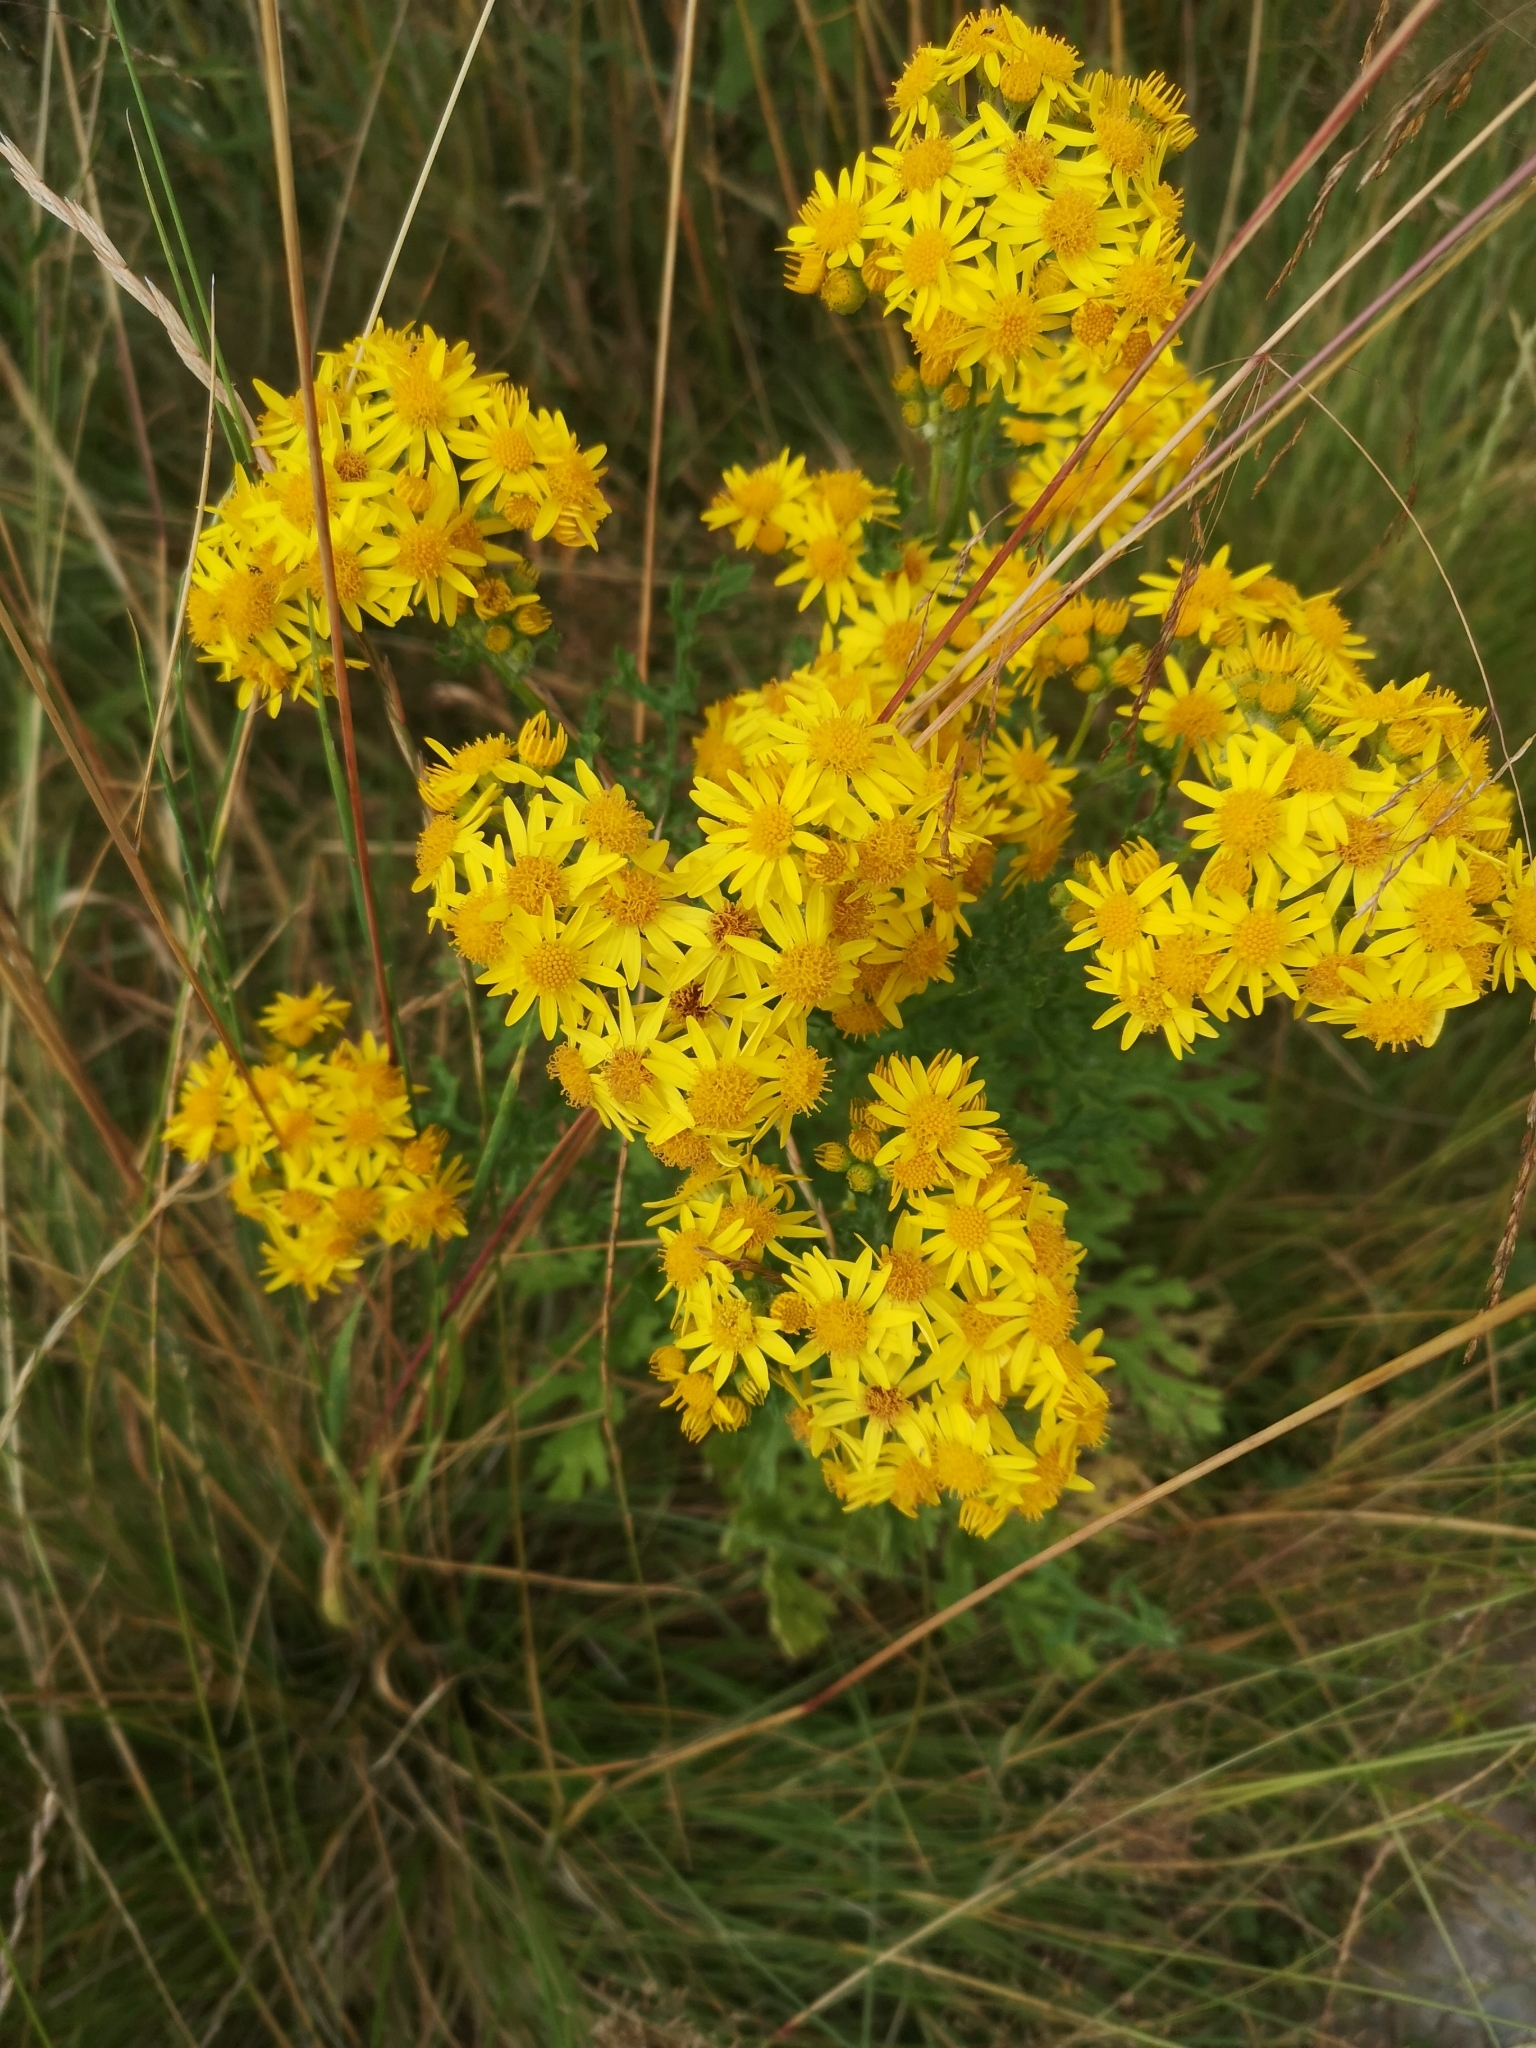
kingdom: Plantae
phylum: Tracheophyta
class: Magnoliopsida
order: Asterales
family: Asteraceae
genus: Jacobaea
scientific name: Jacobaea vulgaris
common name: Stinking willie
